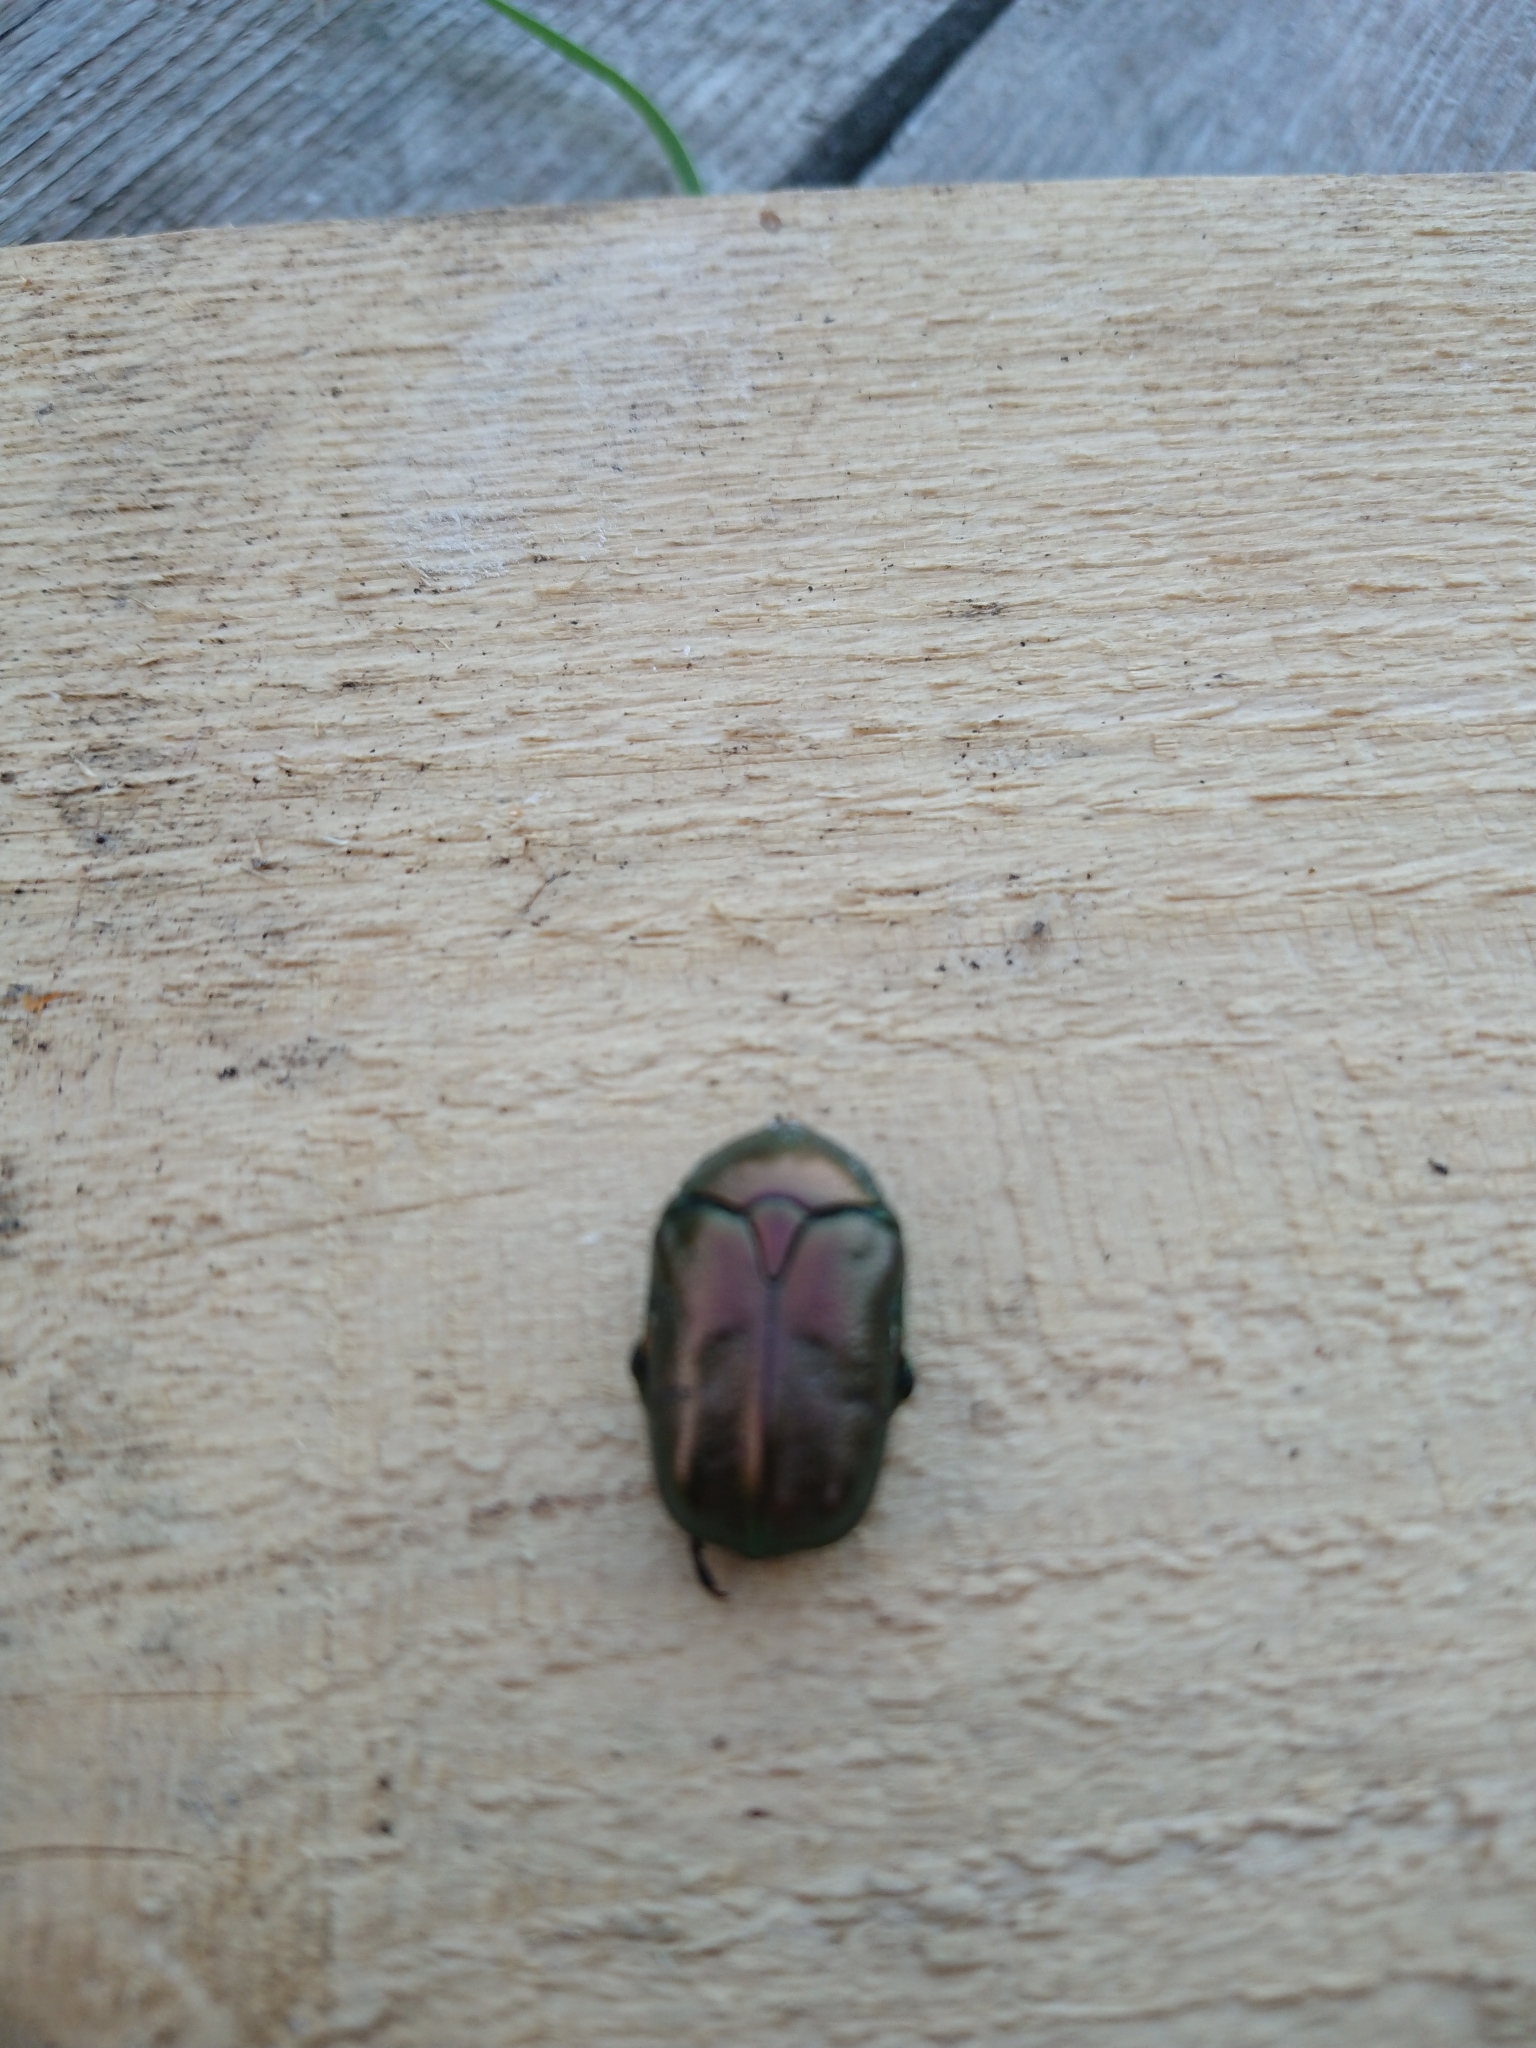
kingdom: Animalia
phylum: Arthropoda
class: Insecta
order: Coleoptera
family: Scarabaeidae
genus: Protaetia
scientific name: Protaetia cuprea
